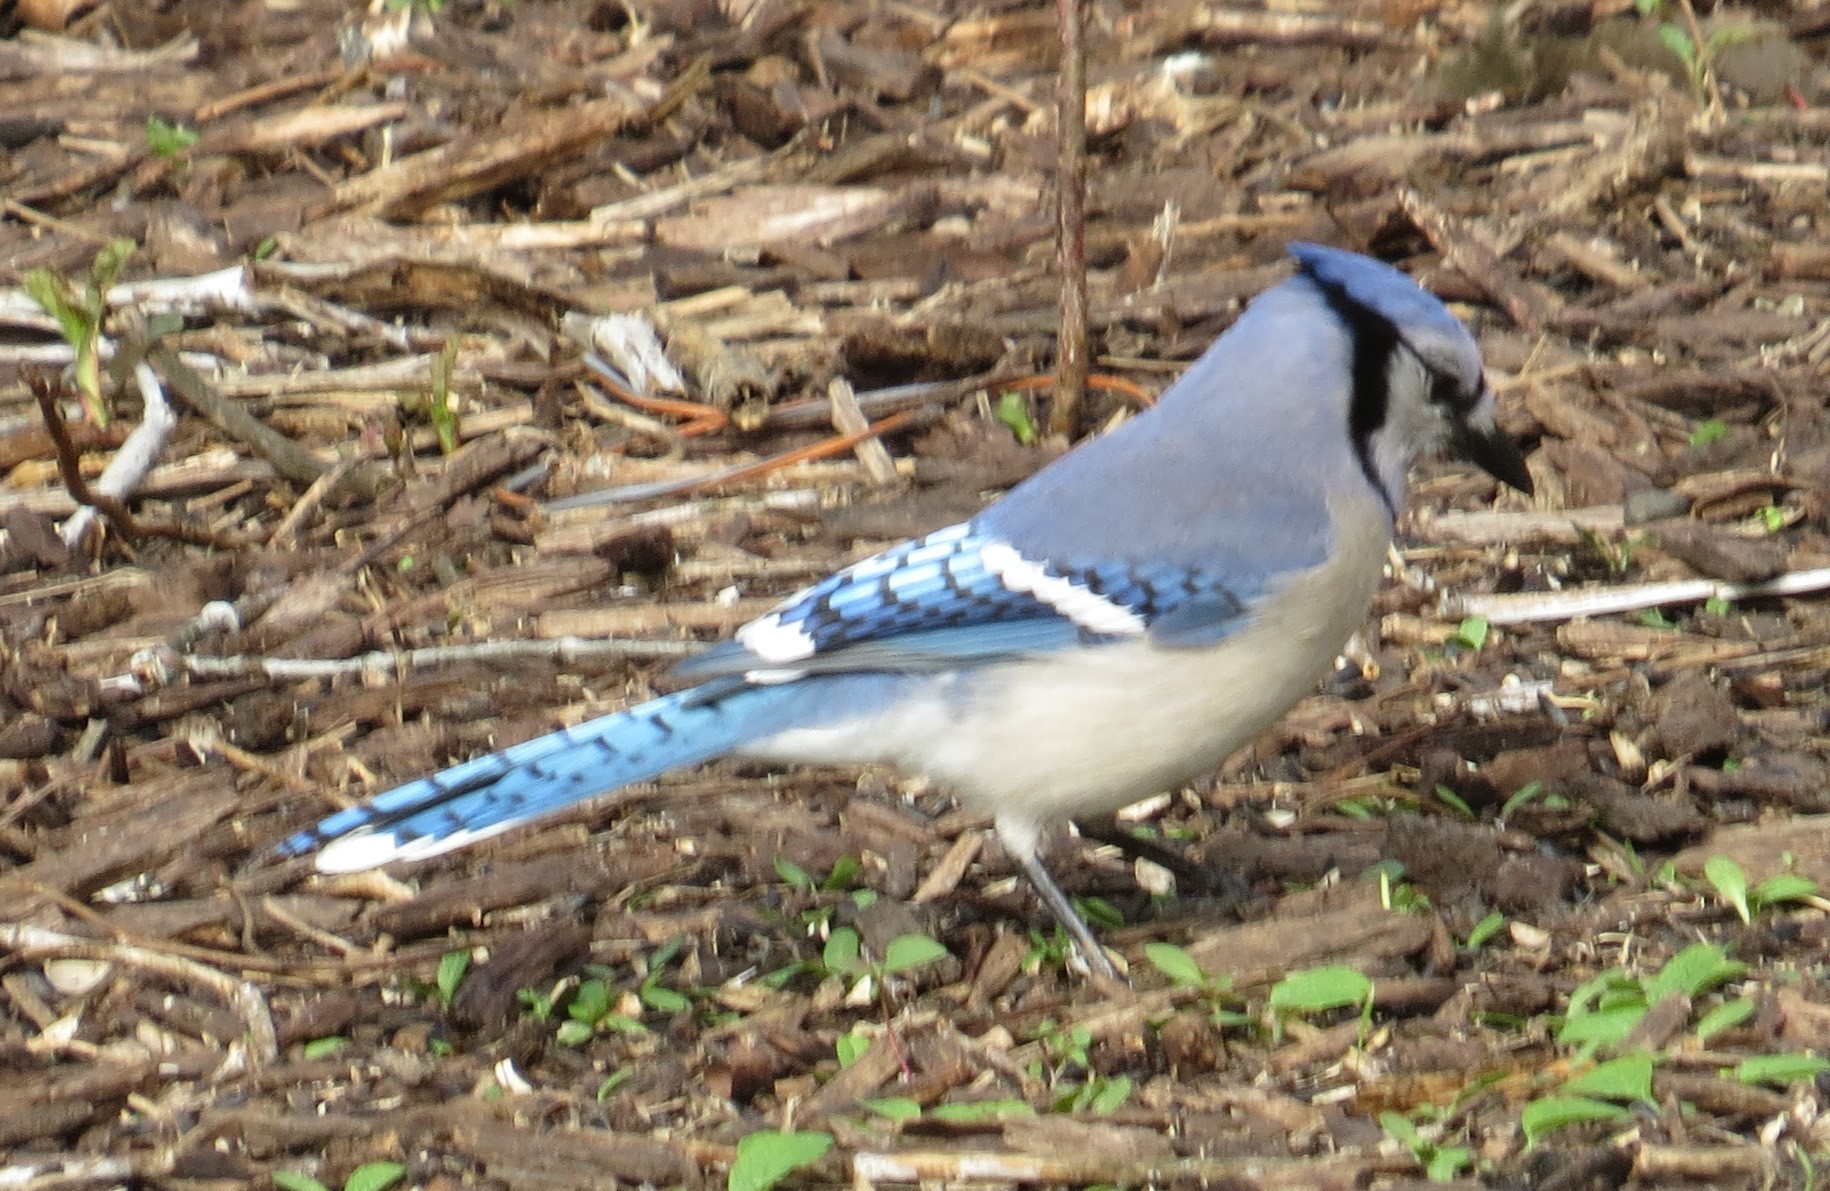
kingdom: Animalia
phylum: Chordata
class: Aves
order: Passeriformes
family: Corvidae
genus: Cyanocitta
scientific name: Cyanocitta cristata
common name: Blue jay
